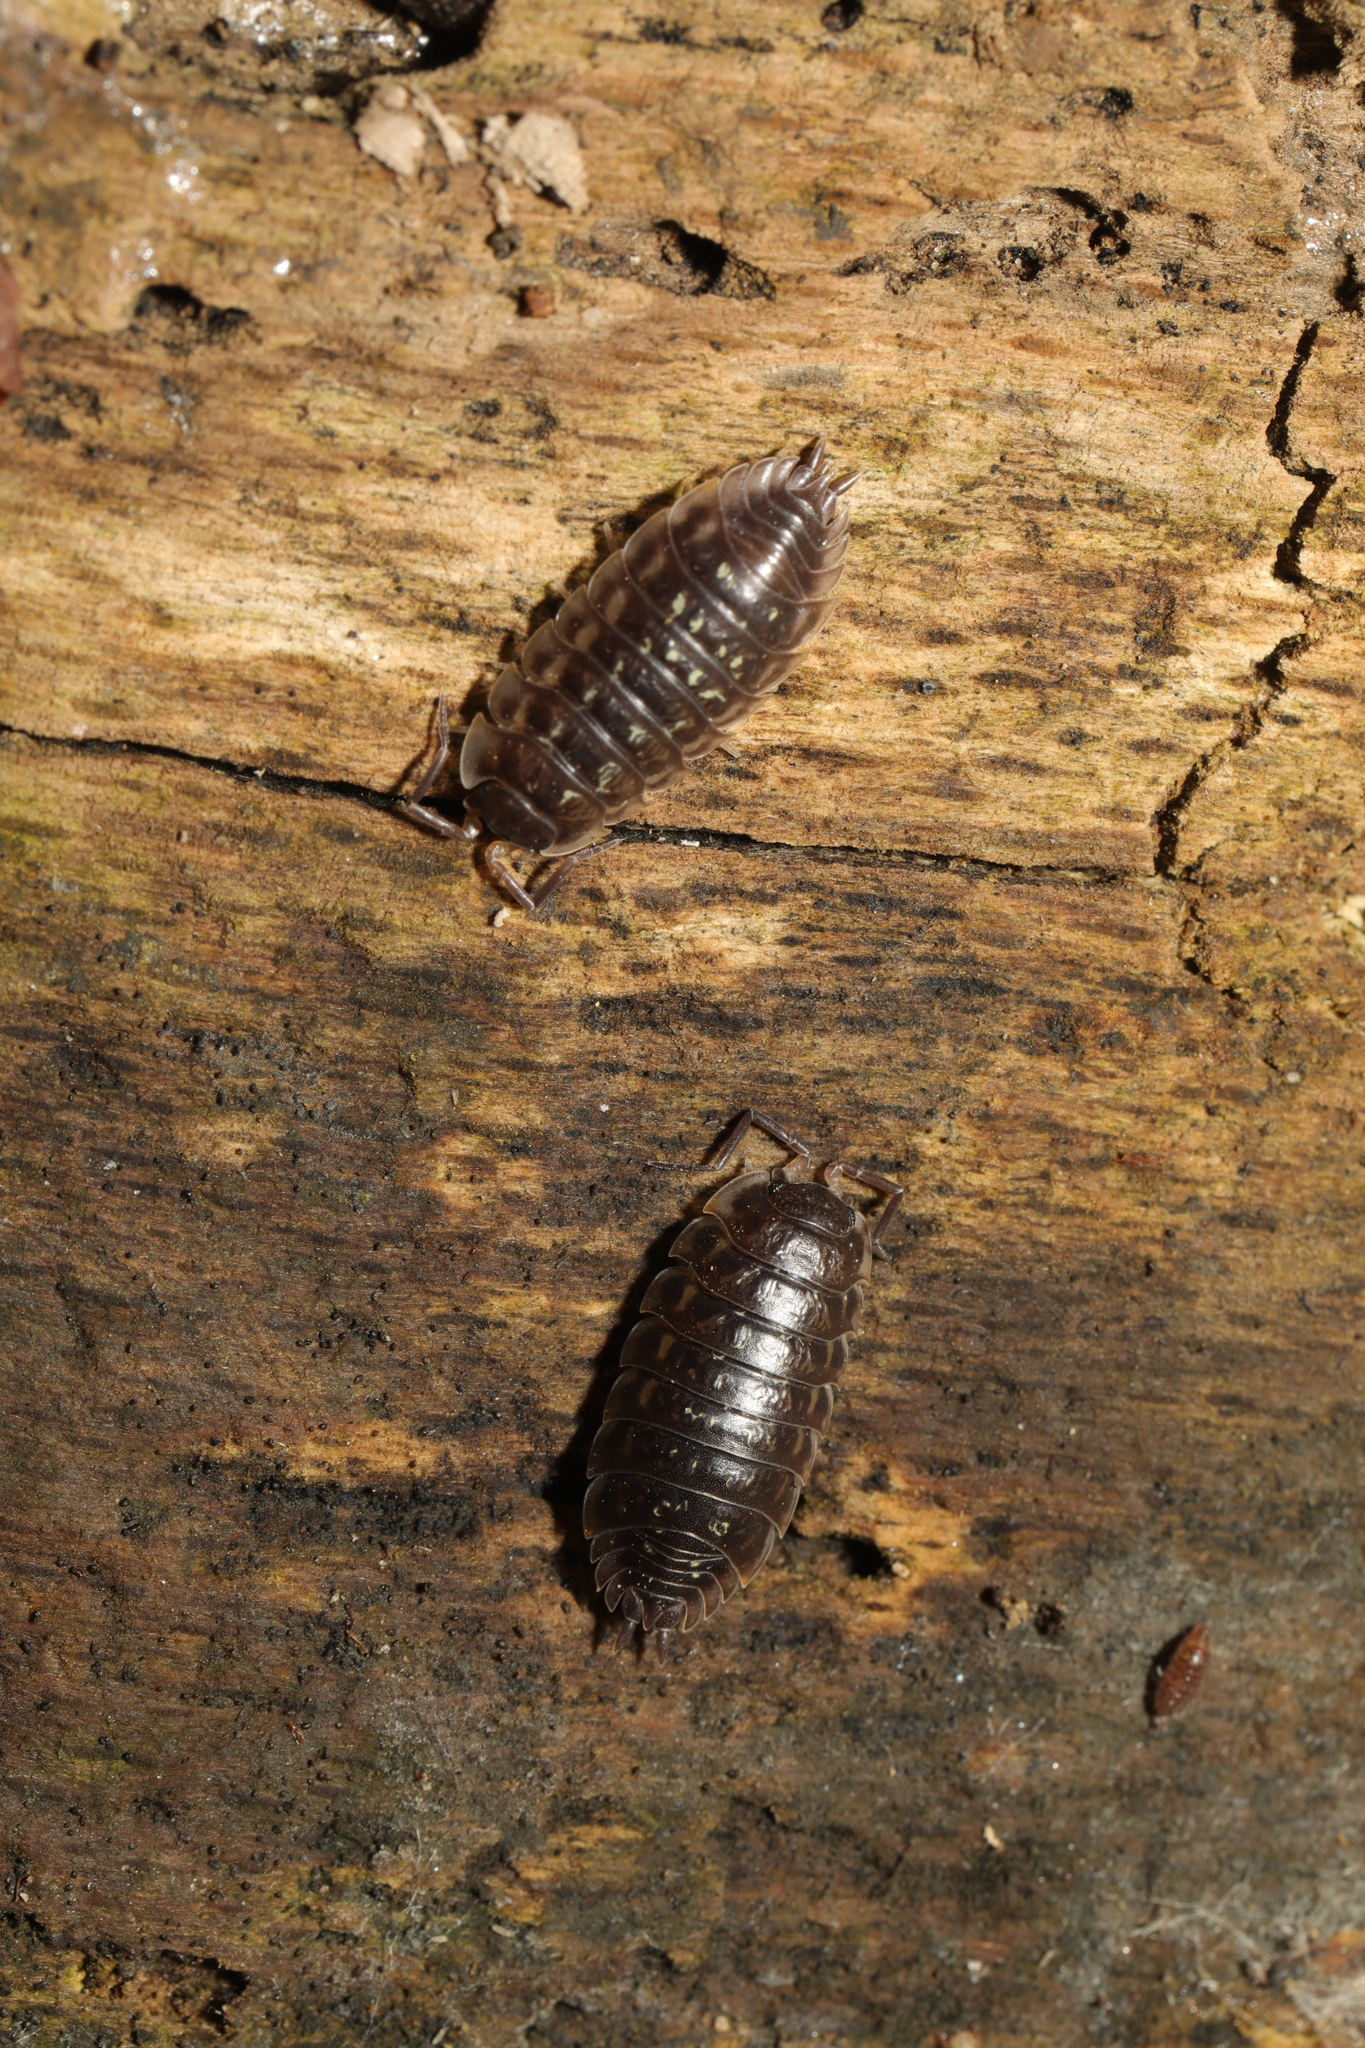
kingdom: Animalia
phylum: Arthropoda
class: Malacostraca
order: Isopoda
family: Oniscidae
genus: Oniscus
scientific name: Oniscus asellus
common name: Common shiny woodlouse
